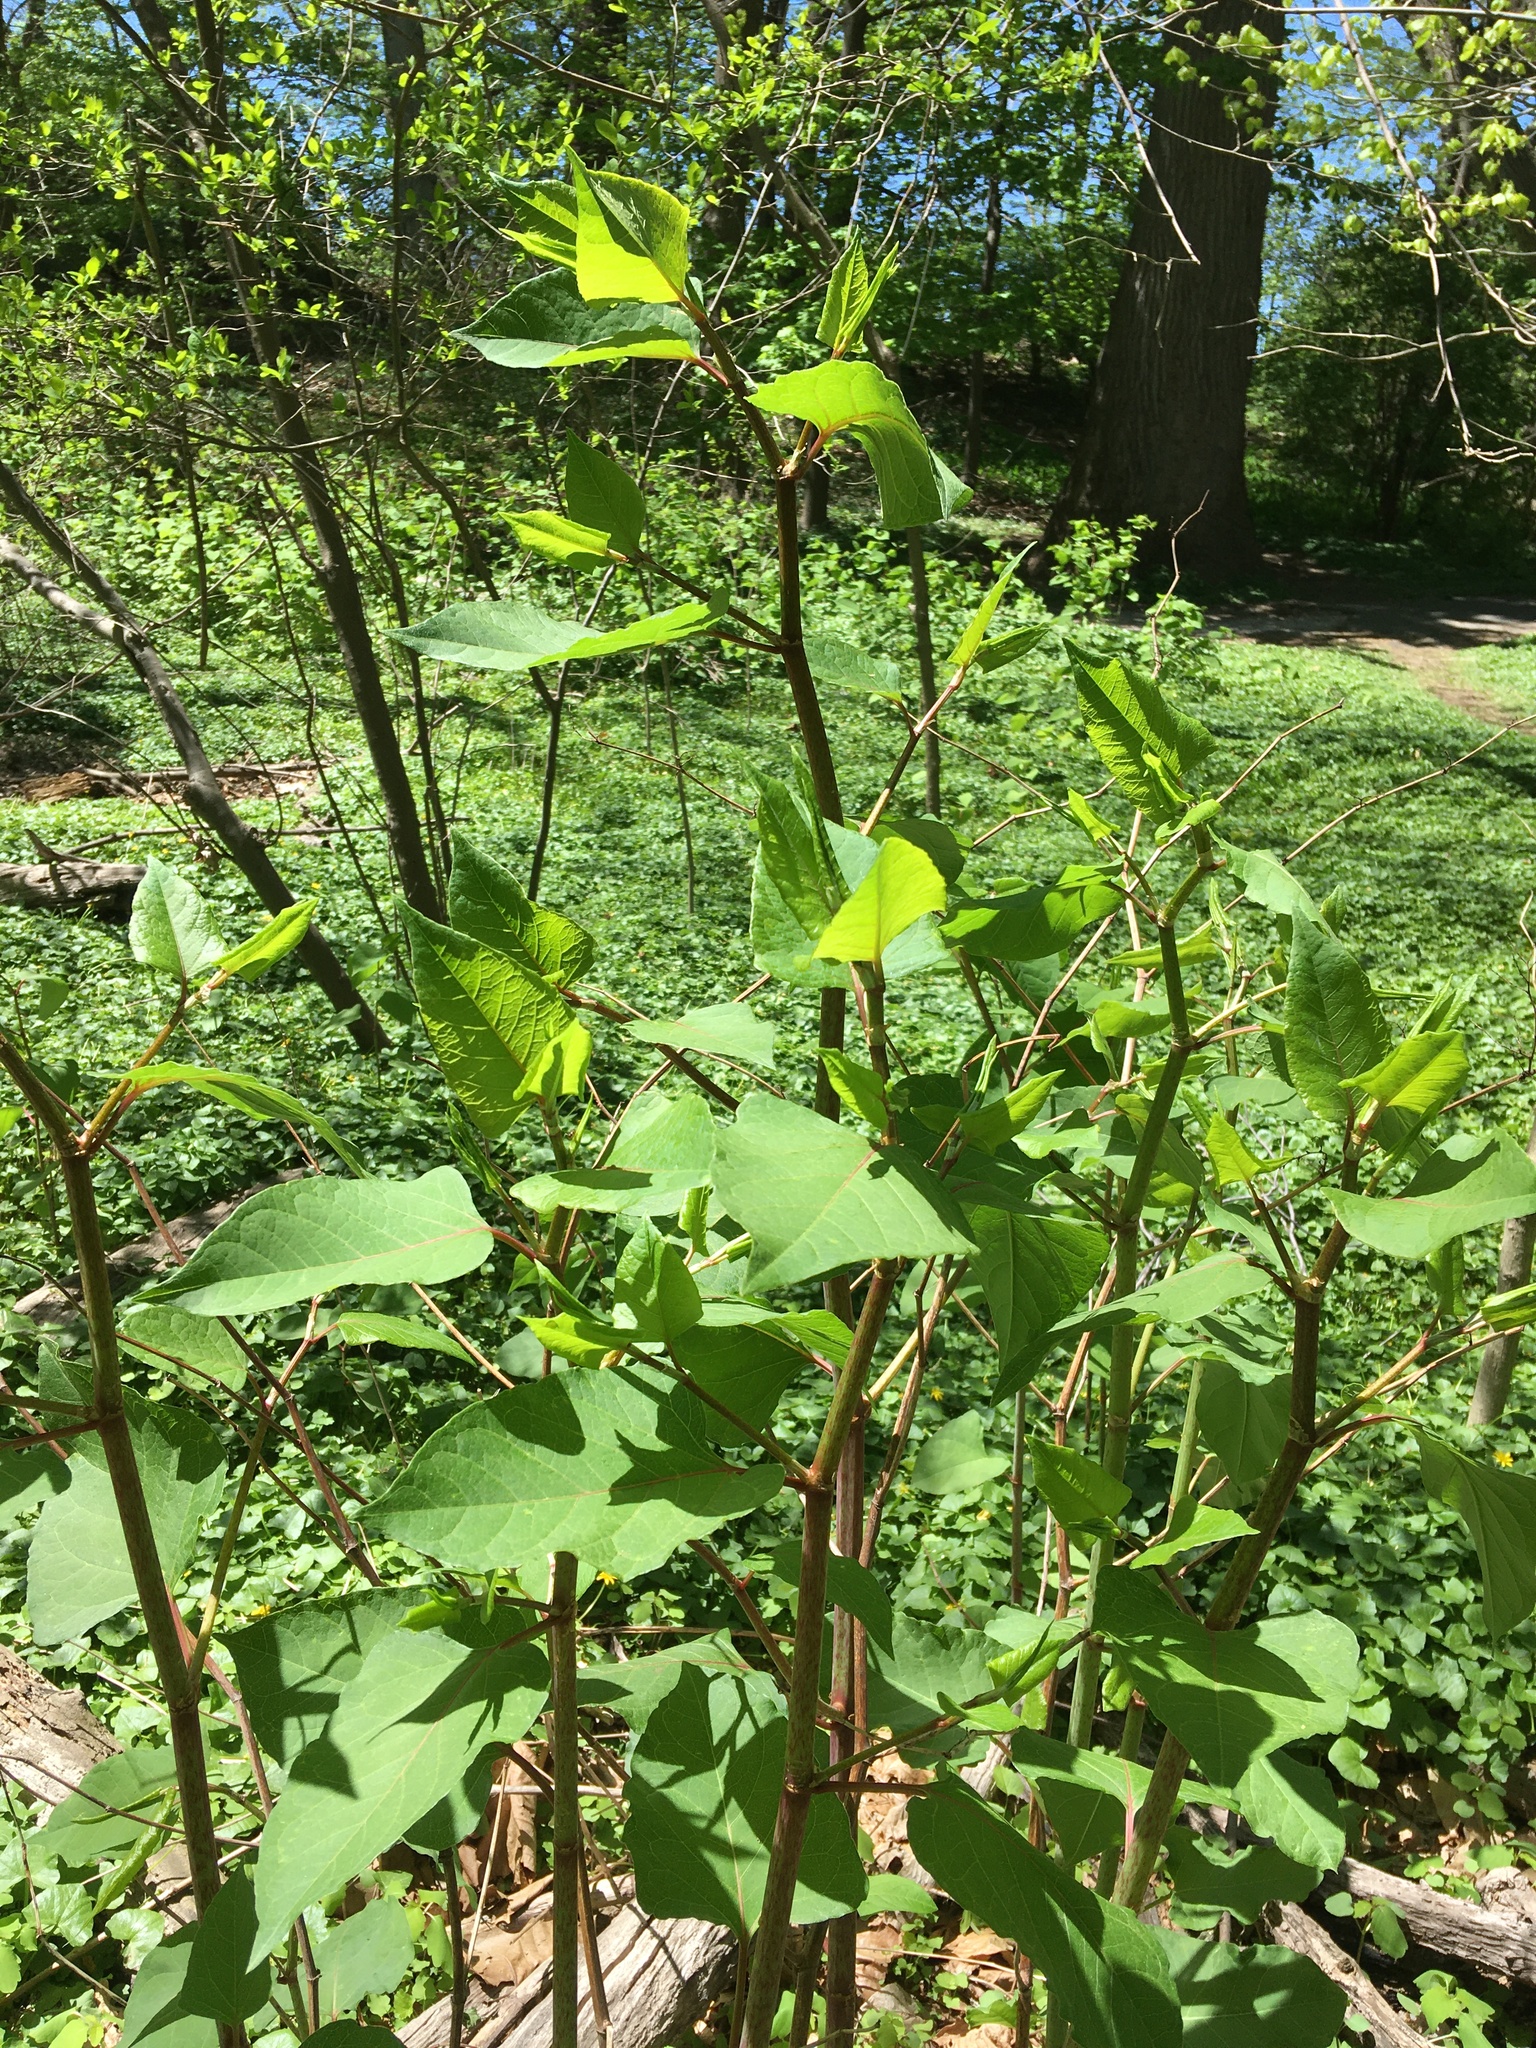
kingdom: Plantae
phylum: Tracheophyta
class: Magnoliopsida
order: Caryophyllales
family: Polygonaceae
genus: Reynoutria
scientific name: Reynoutria japonica
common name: Japanese knotweed
